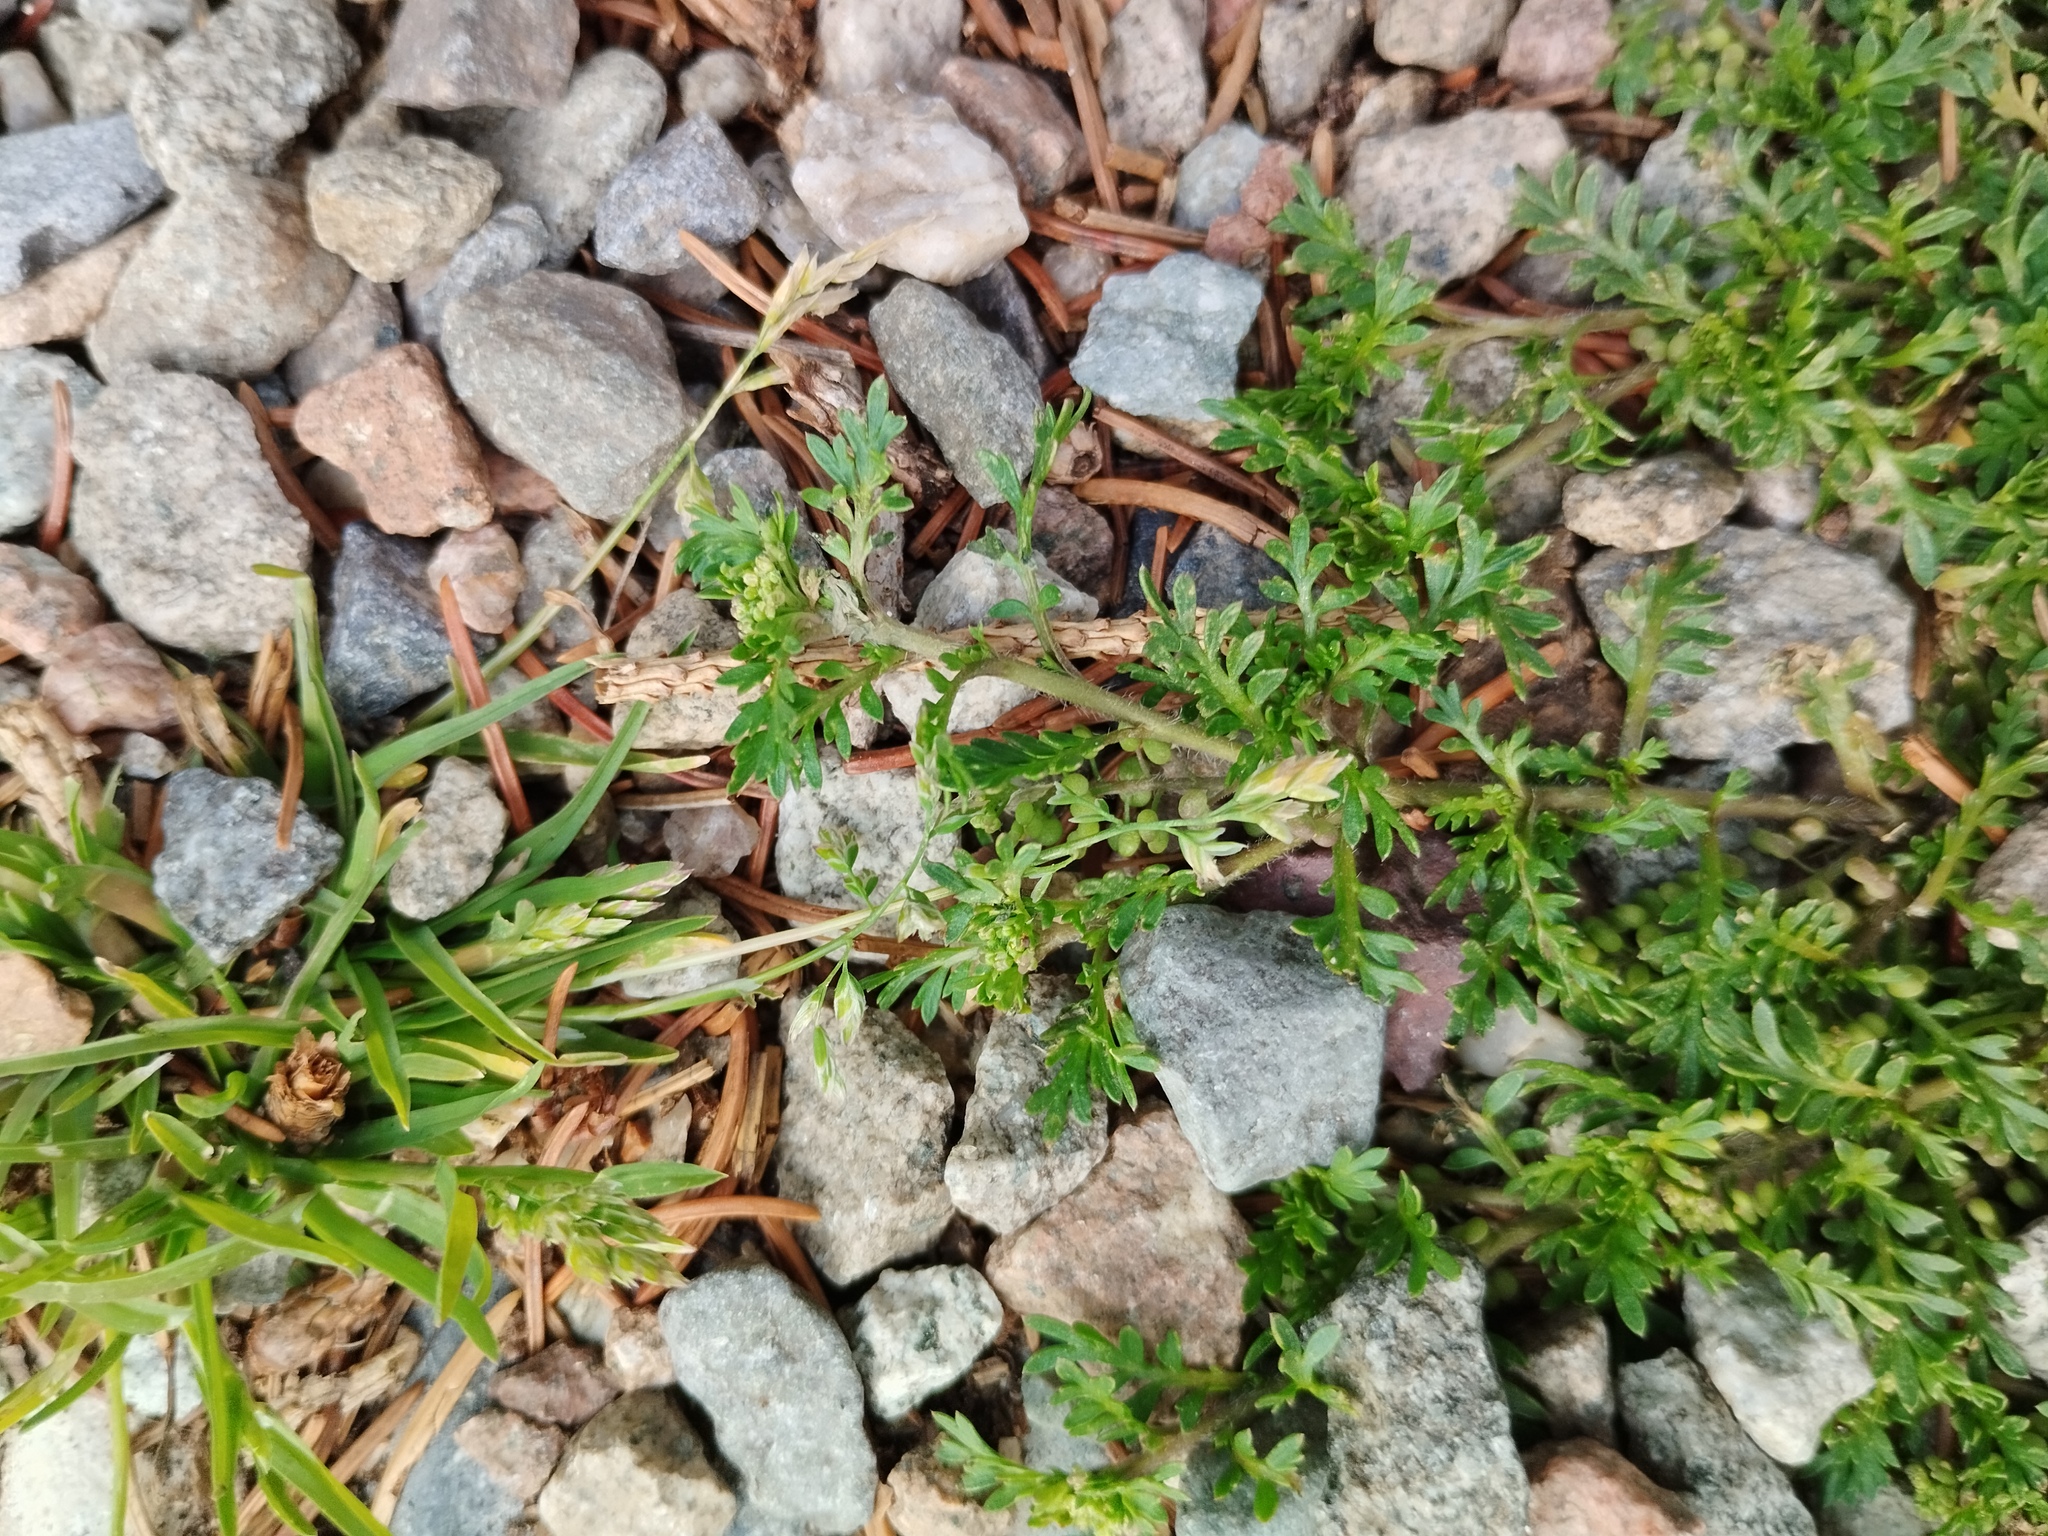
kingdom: Plantae
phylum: Tracheophyta
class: Magnoliopsida
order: Brassicales
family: Brassicaceae
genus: Lepidium
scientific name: Lepidium didymum
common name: Lesser swinecress
